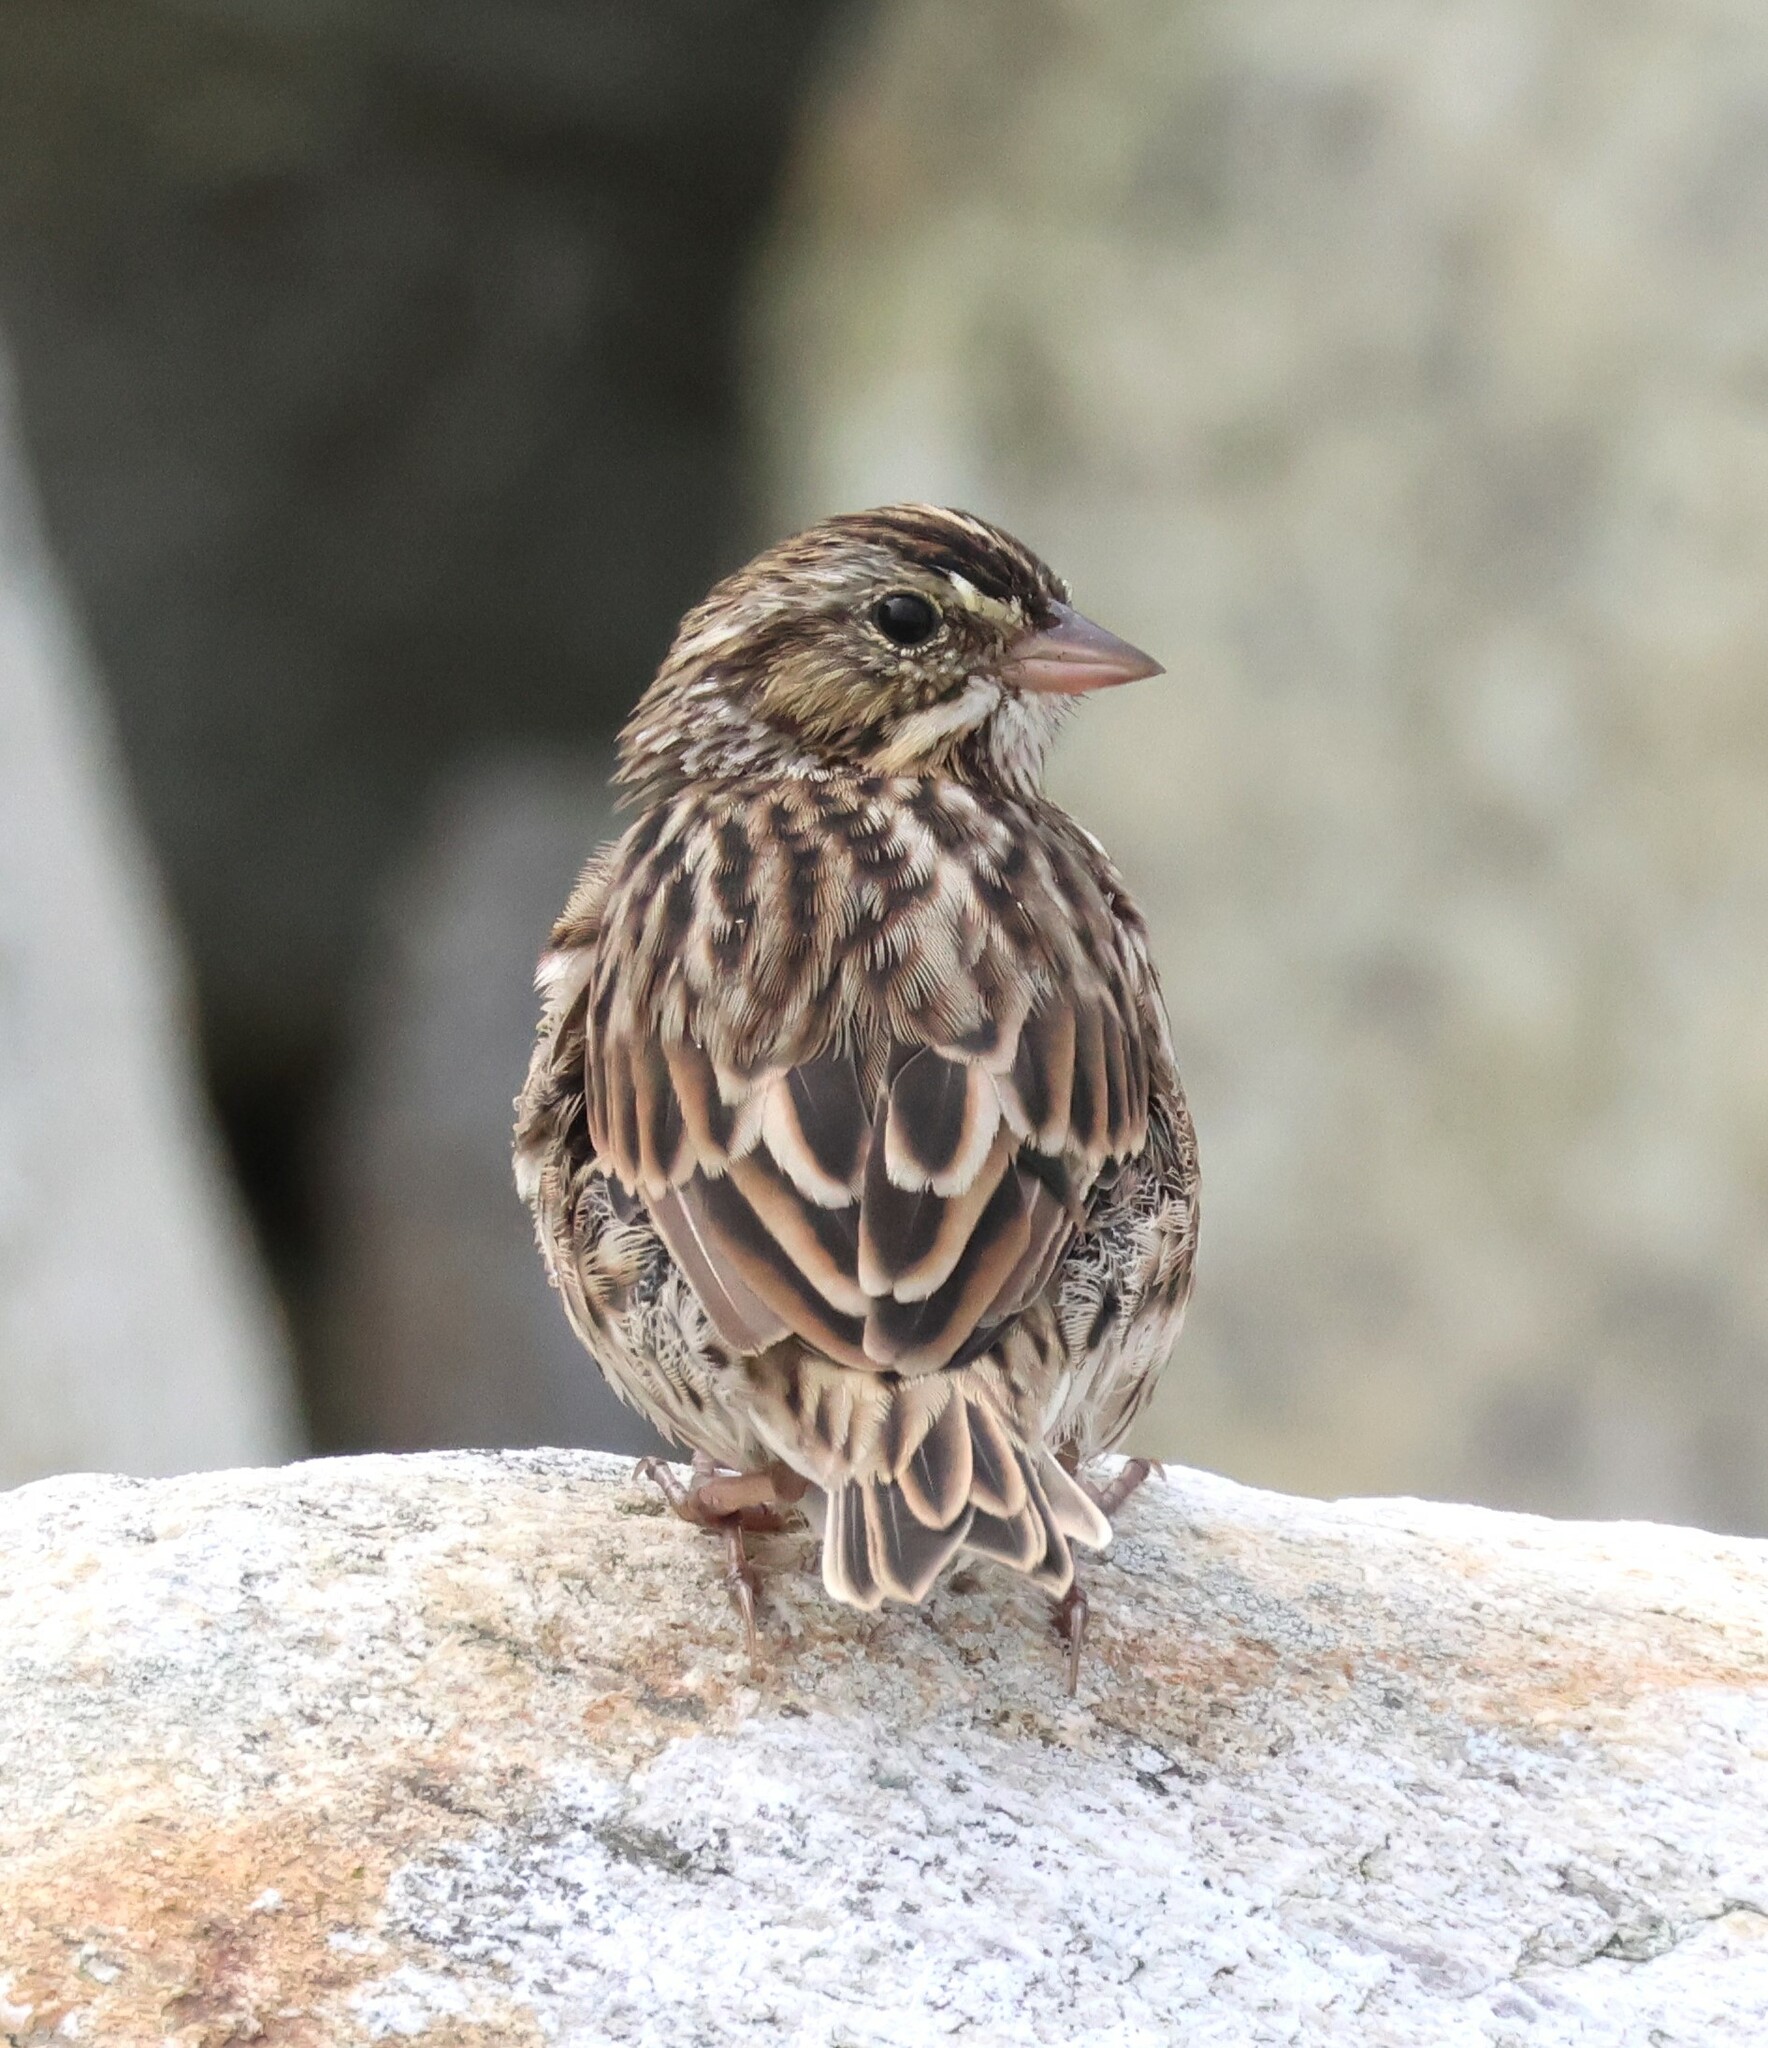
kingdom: Animalia
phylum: Chordata
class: Aves
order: Passeriformes
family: Passerellidae
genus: Passerculus
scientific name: Passerculus sandwichensis
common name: Savannah sparrow
